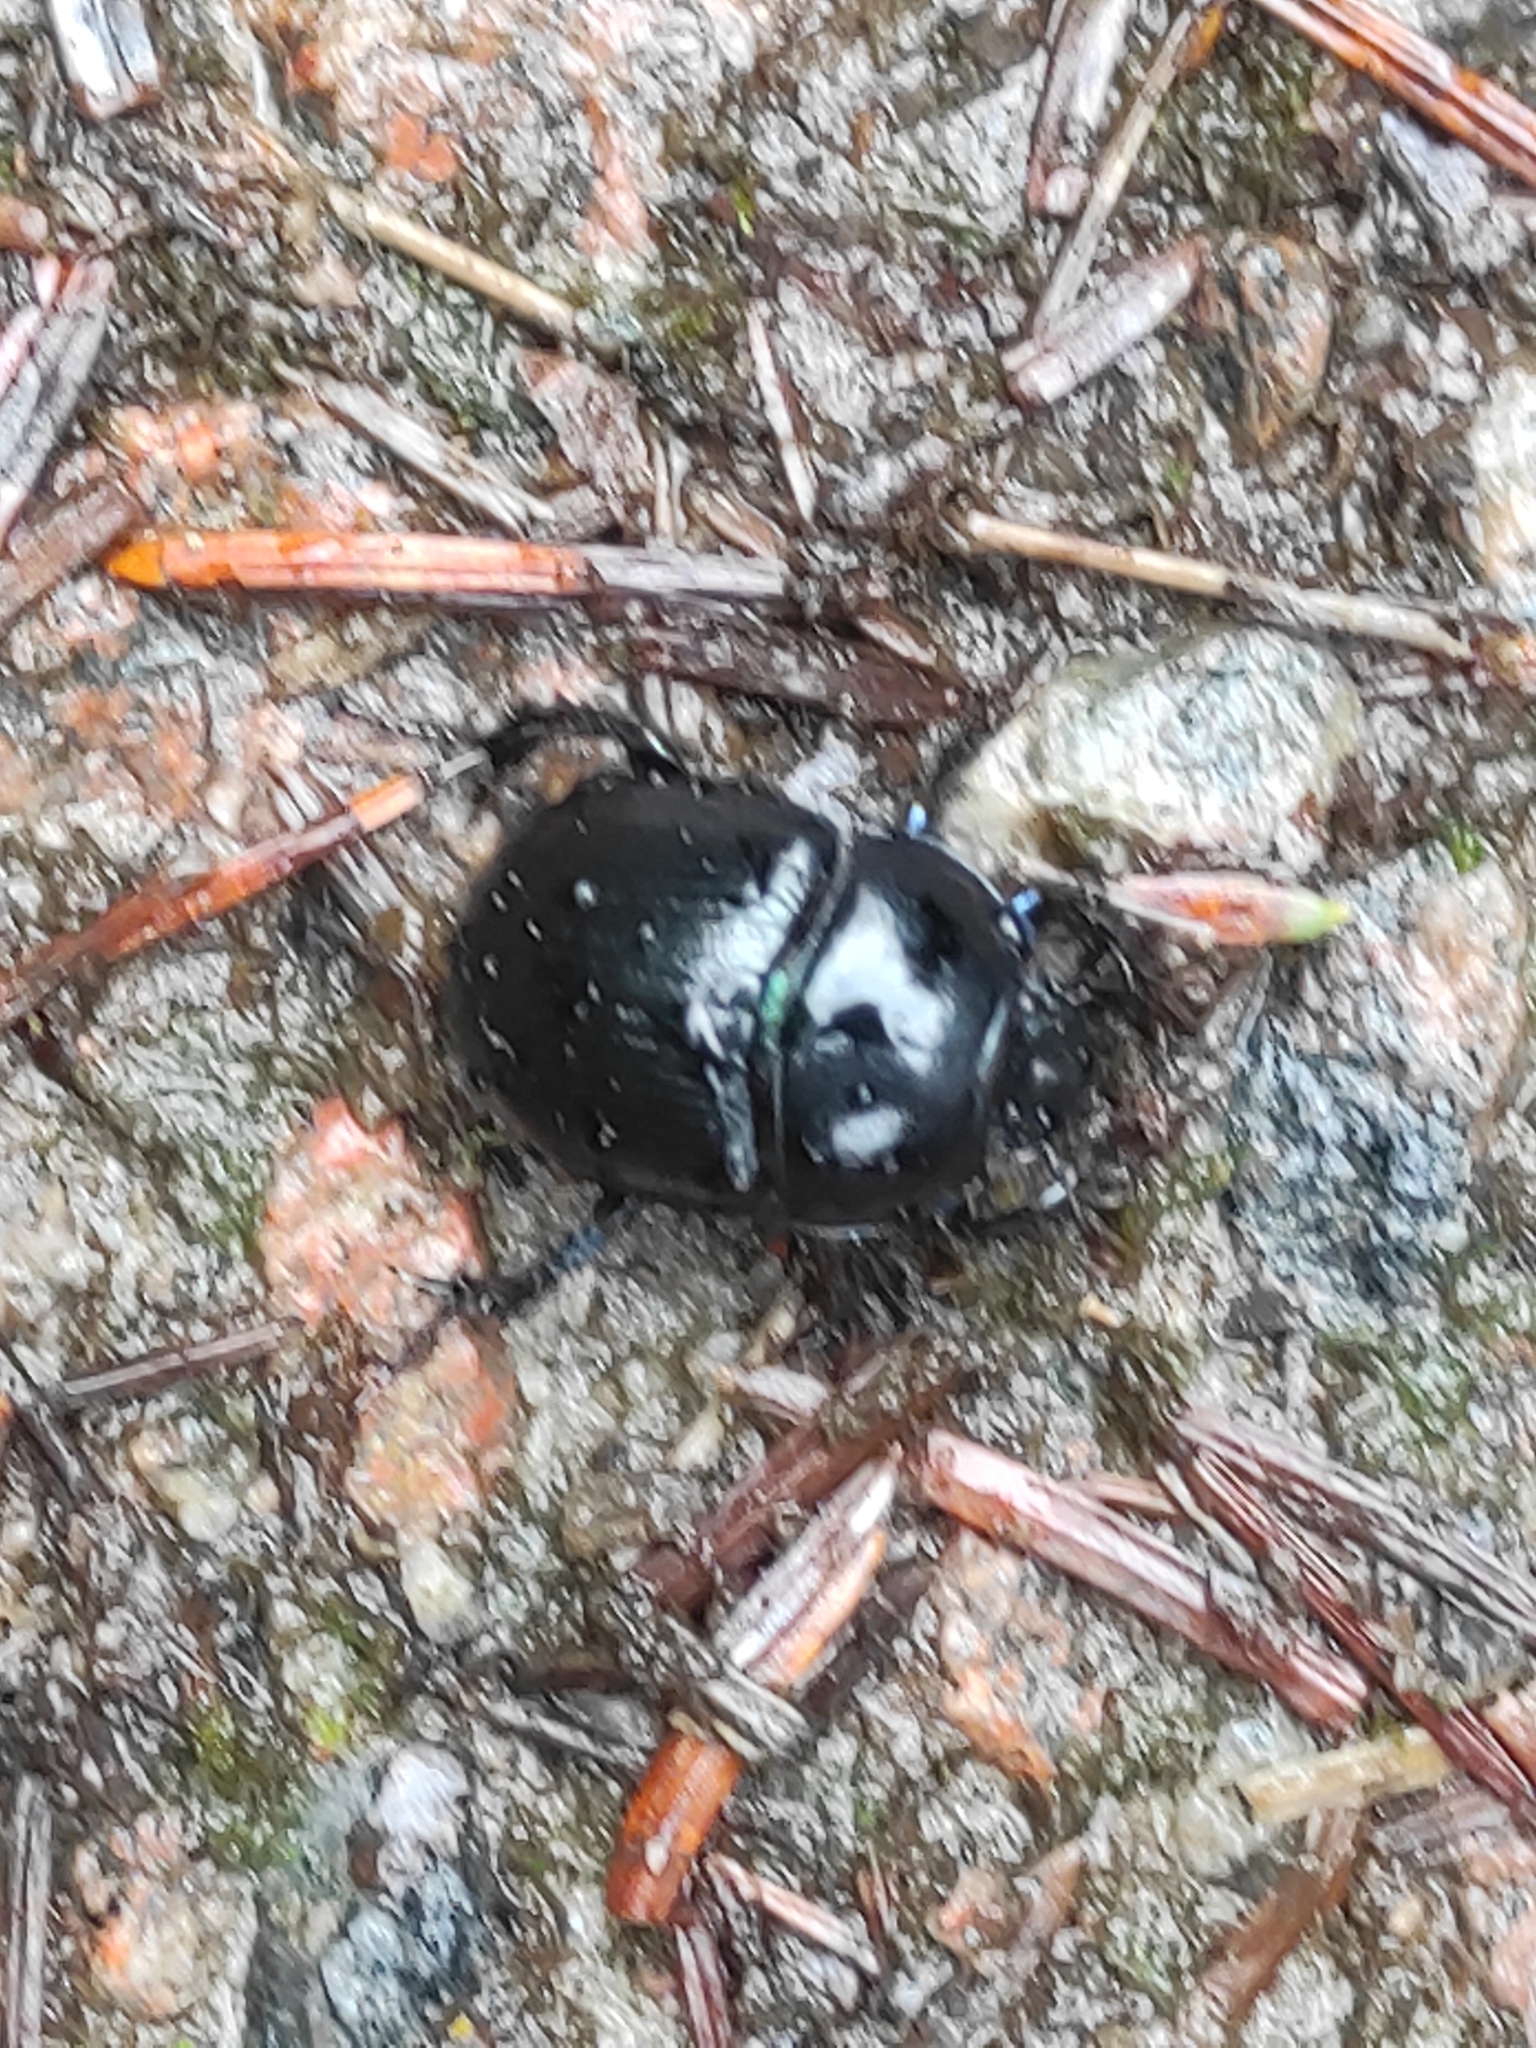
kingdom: Animalia
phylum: Arthropoda
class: Insecta
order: Coleoptera
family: Geotrupidae
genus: Anoplotrupes
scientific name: Anoplotrupes stercorosus
